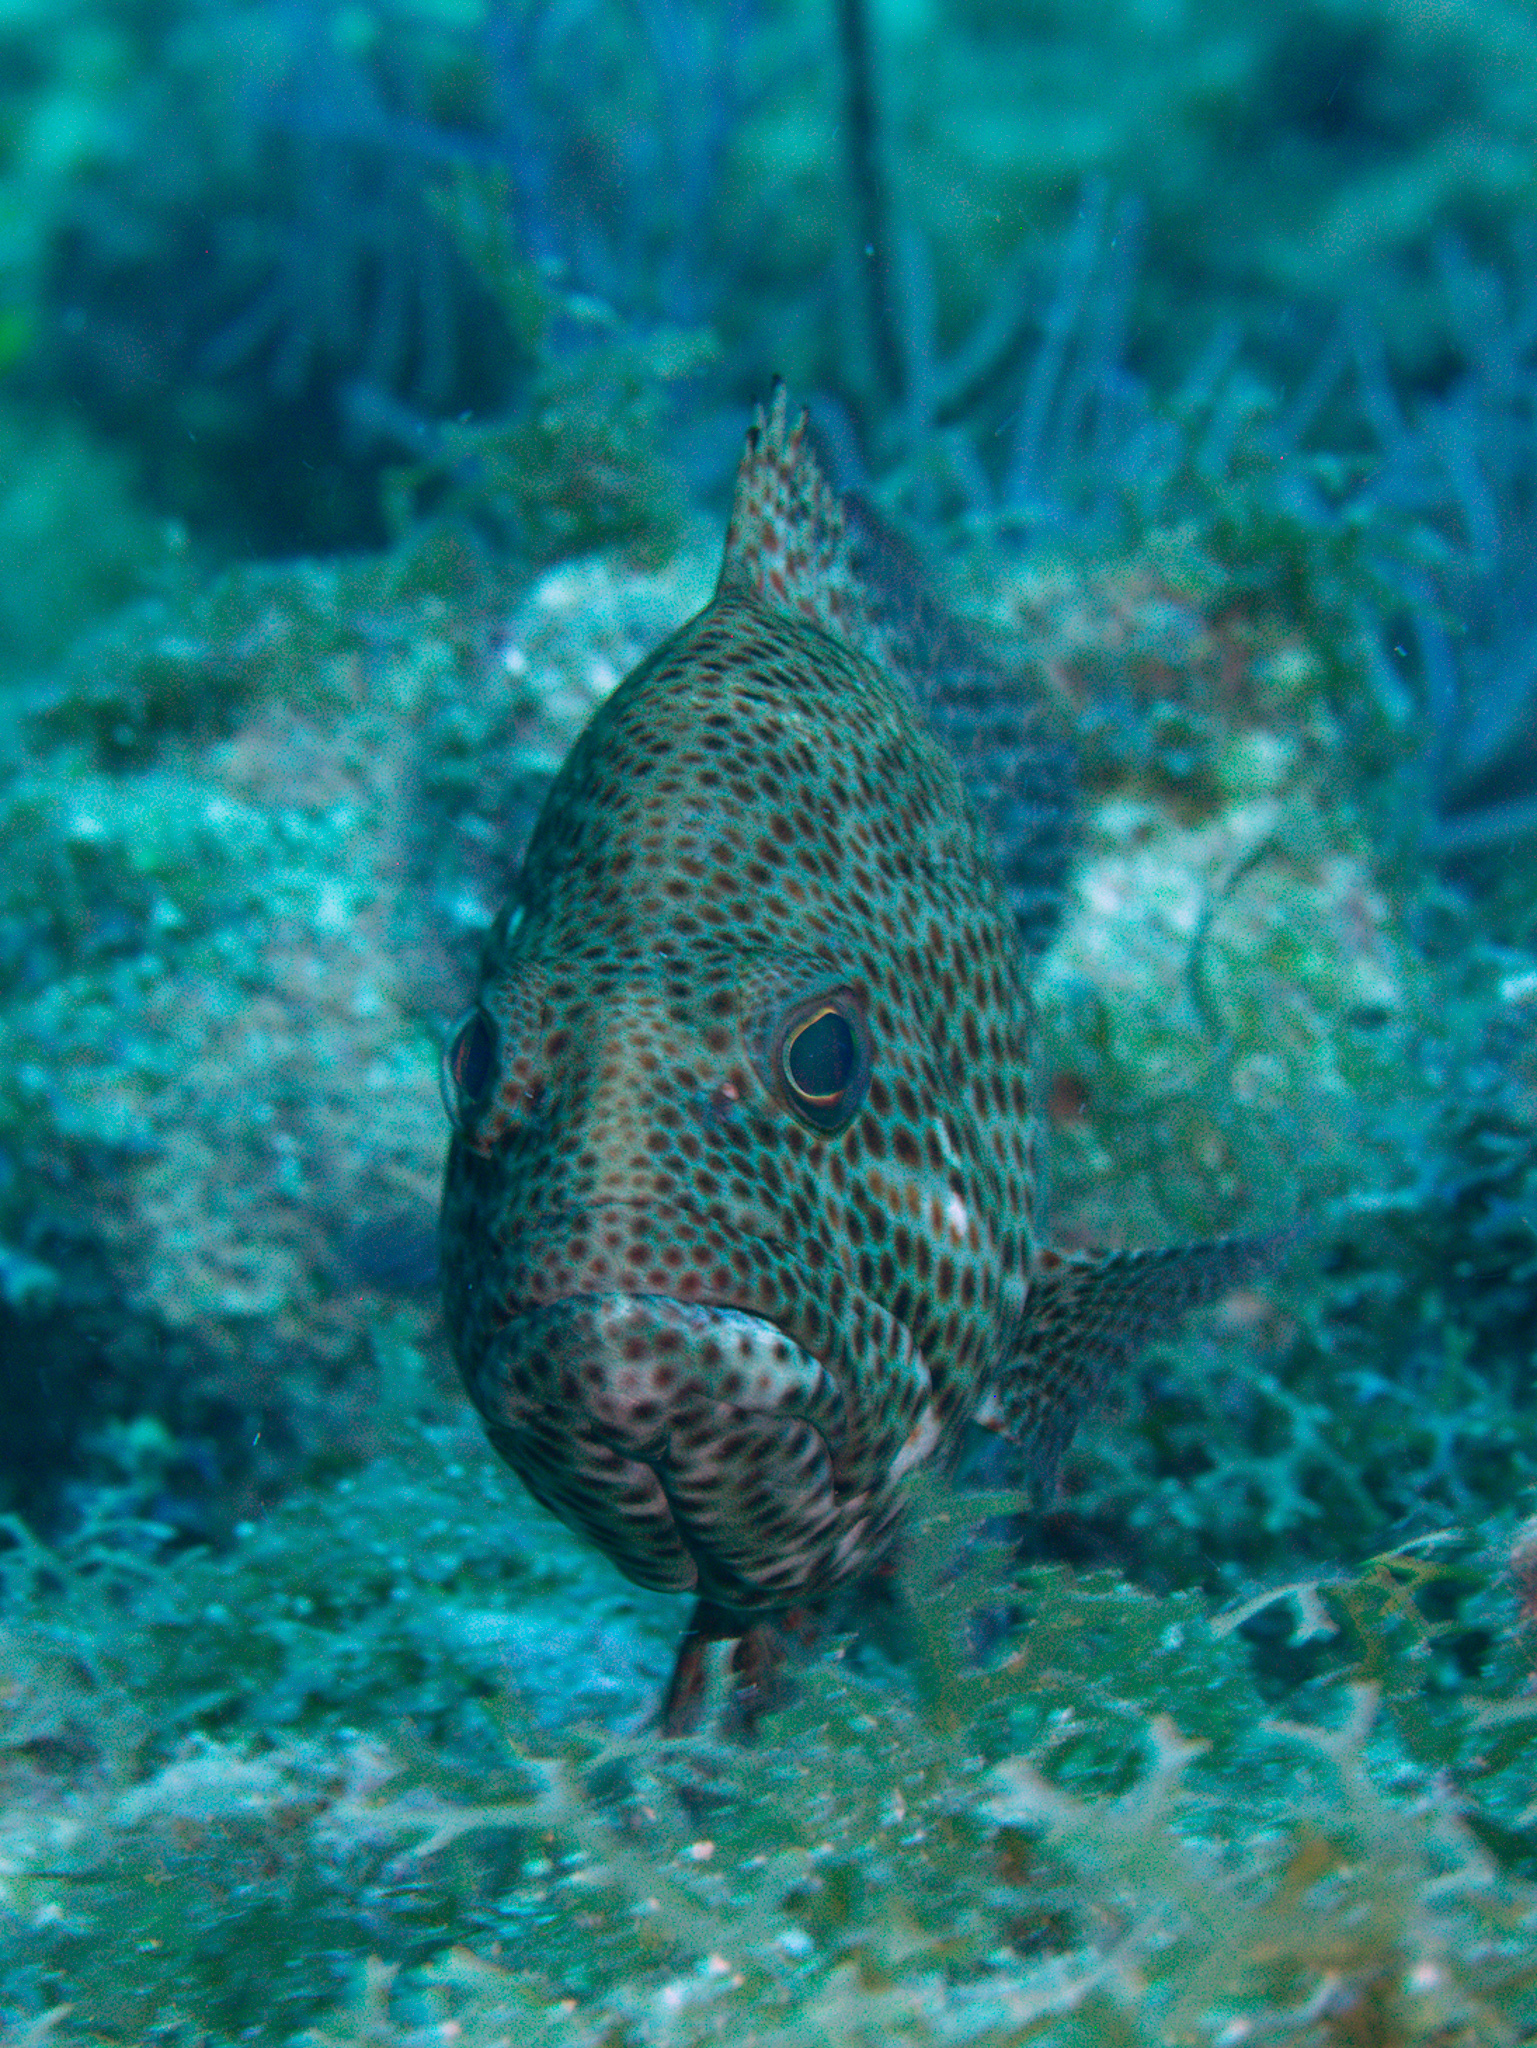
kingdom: Animalia
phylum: Chordata
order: Perciformes
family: Serranidae
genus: Cephalopholis
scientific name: Cephalopholis cruentata
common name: Graysby
